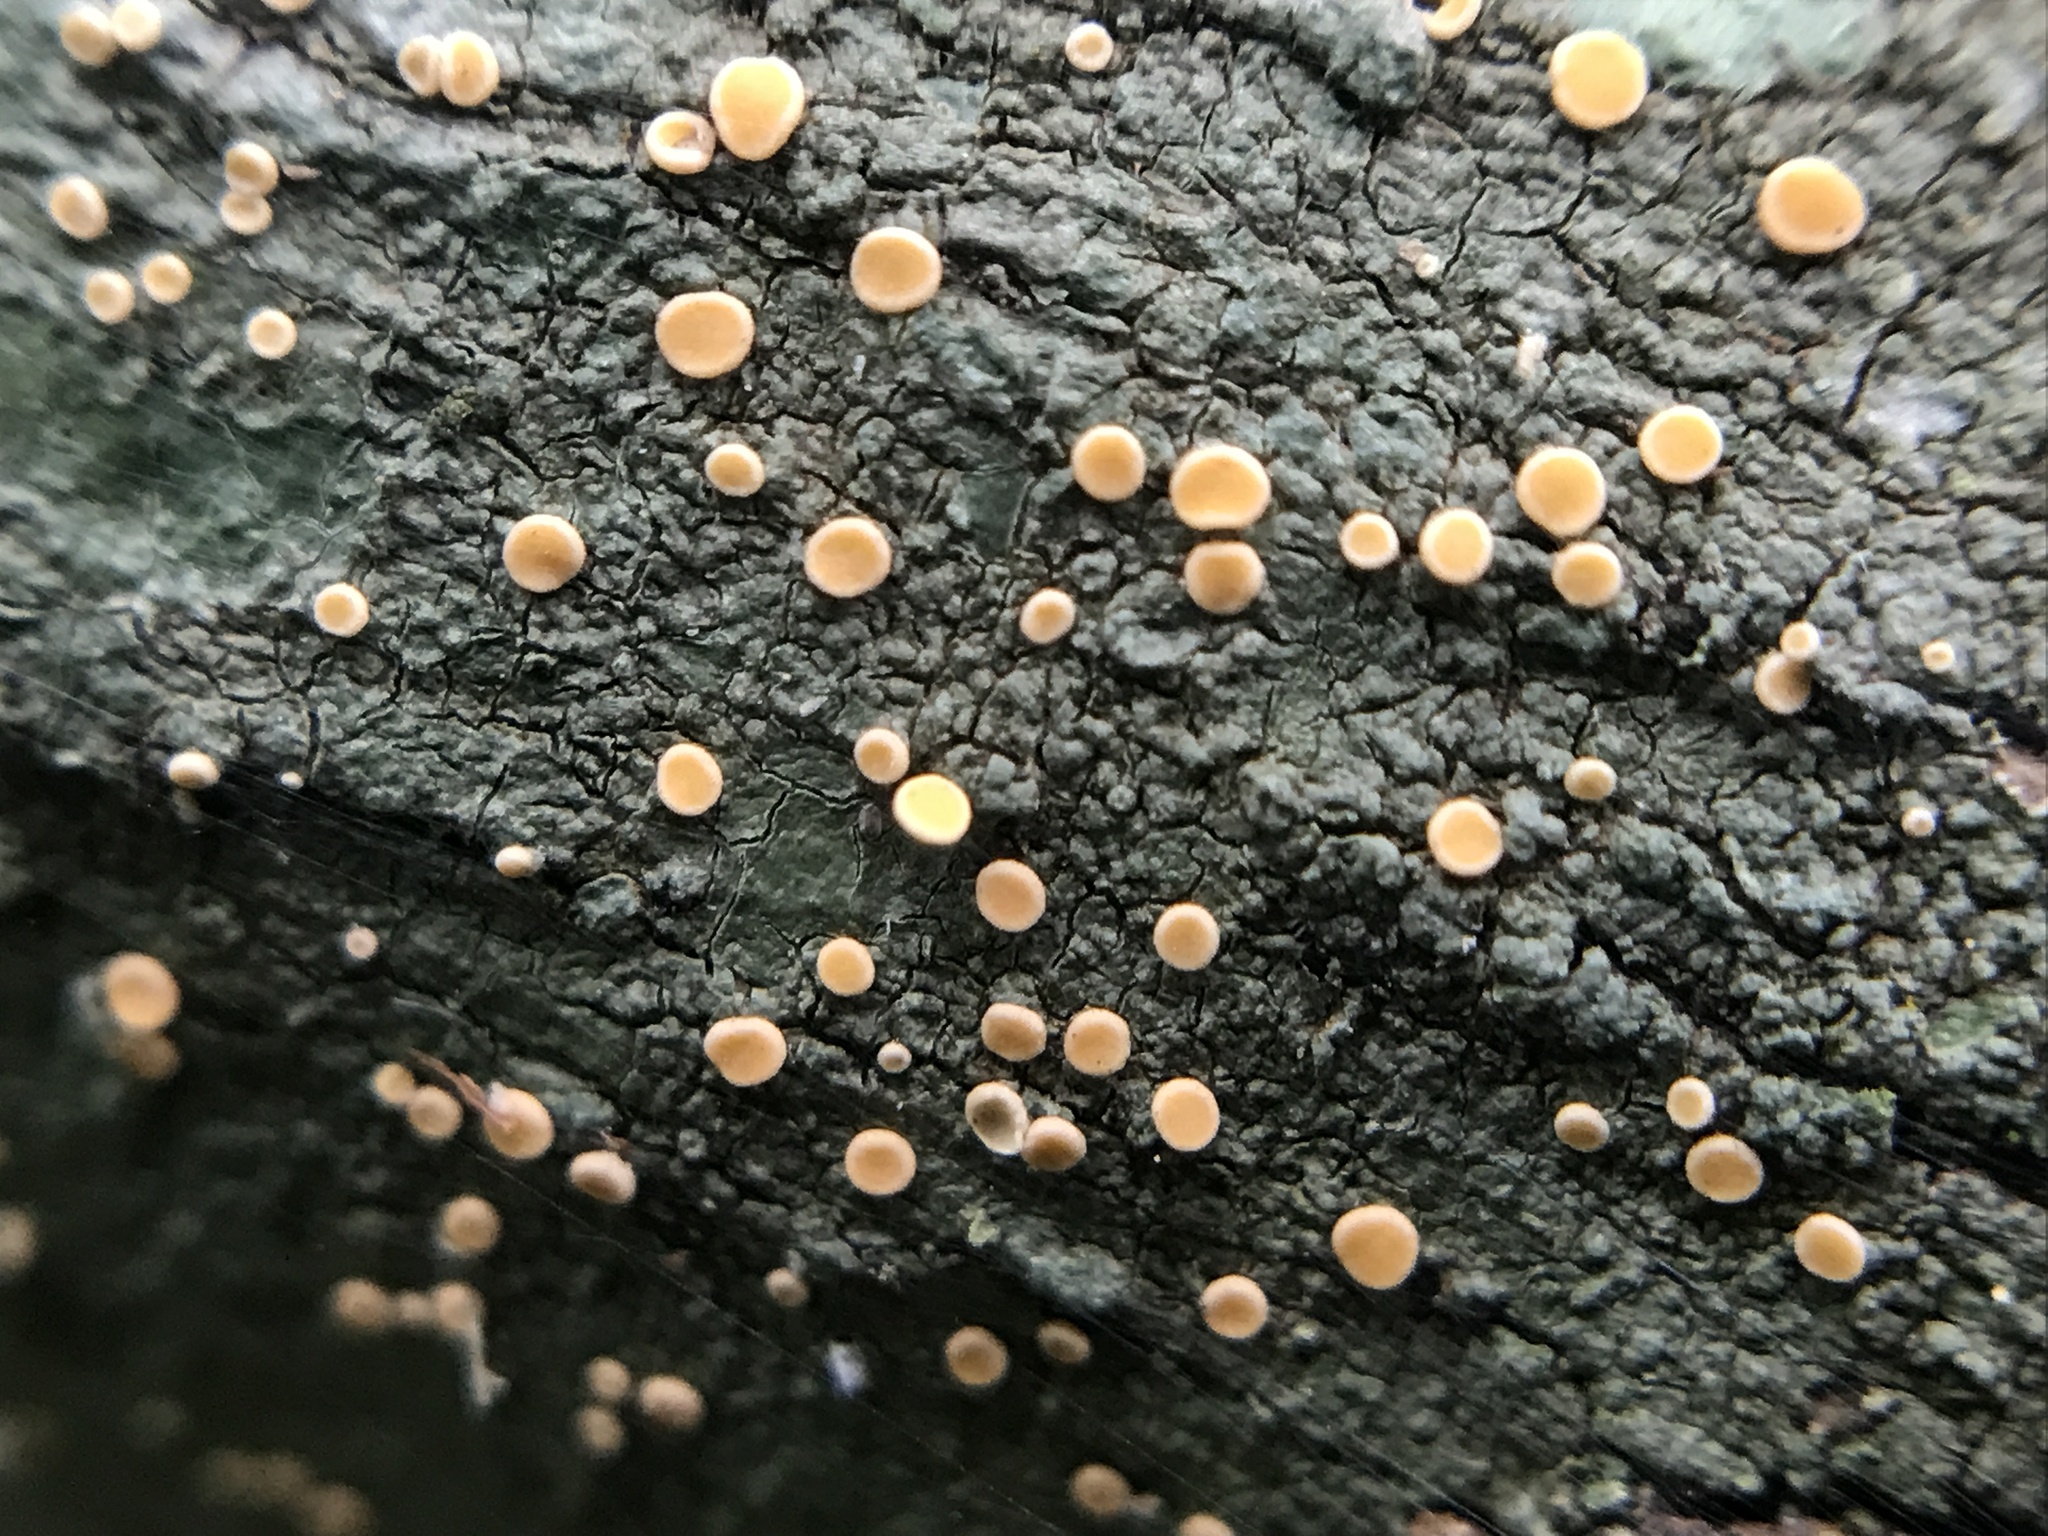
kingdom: Fungi
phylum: Ascomycota
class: Lecanoromycetes
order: Ostropales
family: Coenogoniaceae
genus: Coenogonium
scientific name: Coenogonium luteum
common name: Orange dimple lichen
